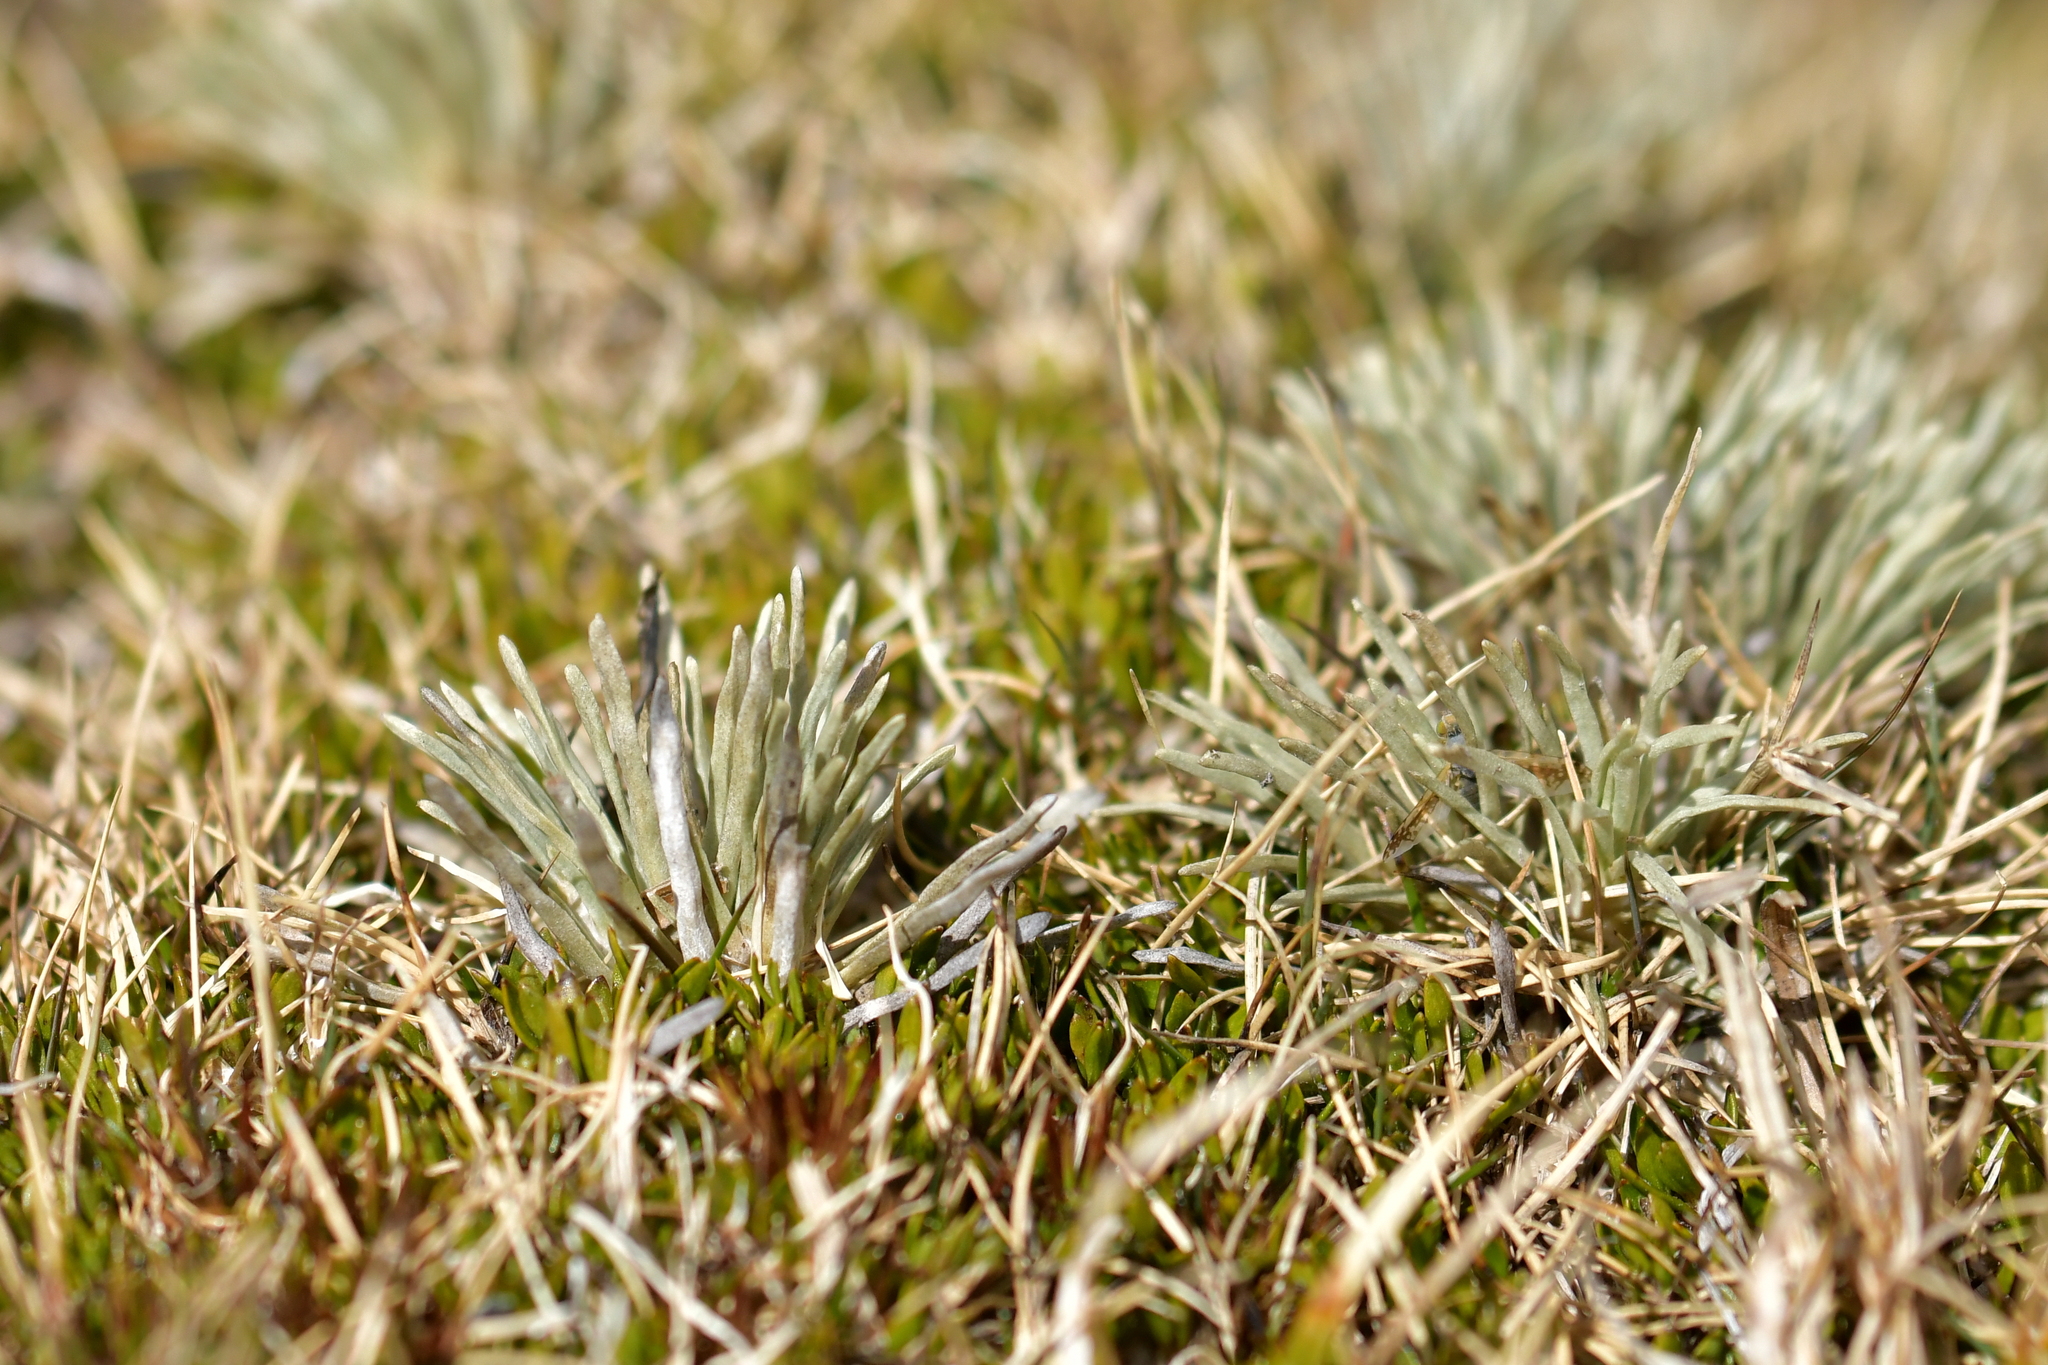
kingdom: Plantae
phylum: Tracheophyta
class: Magnoliopsida
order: Asterales
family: Asteraceae
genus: Celmisia
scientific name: Celmisia sessiliflora
